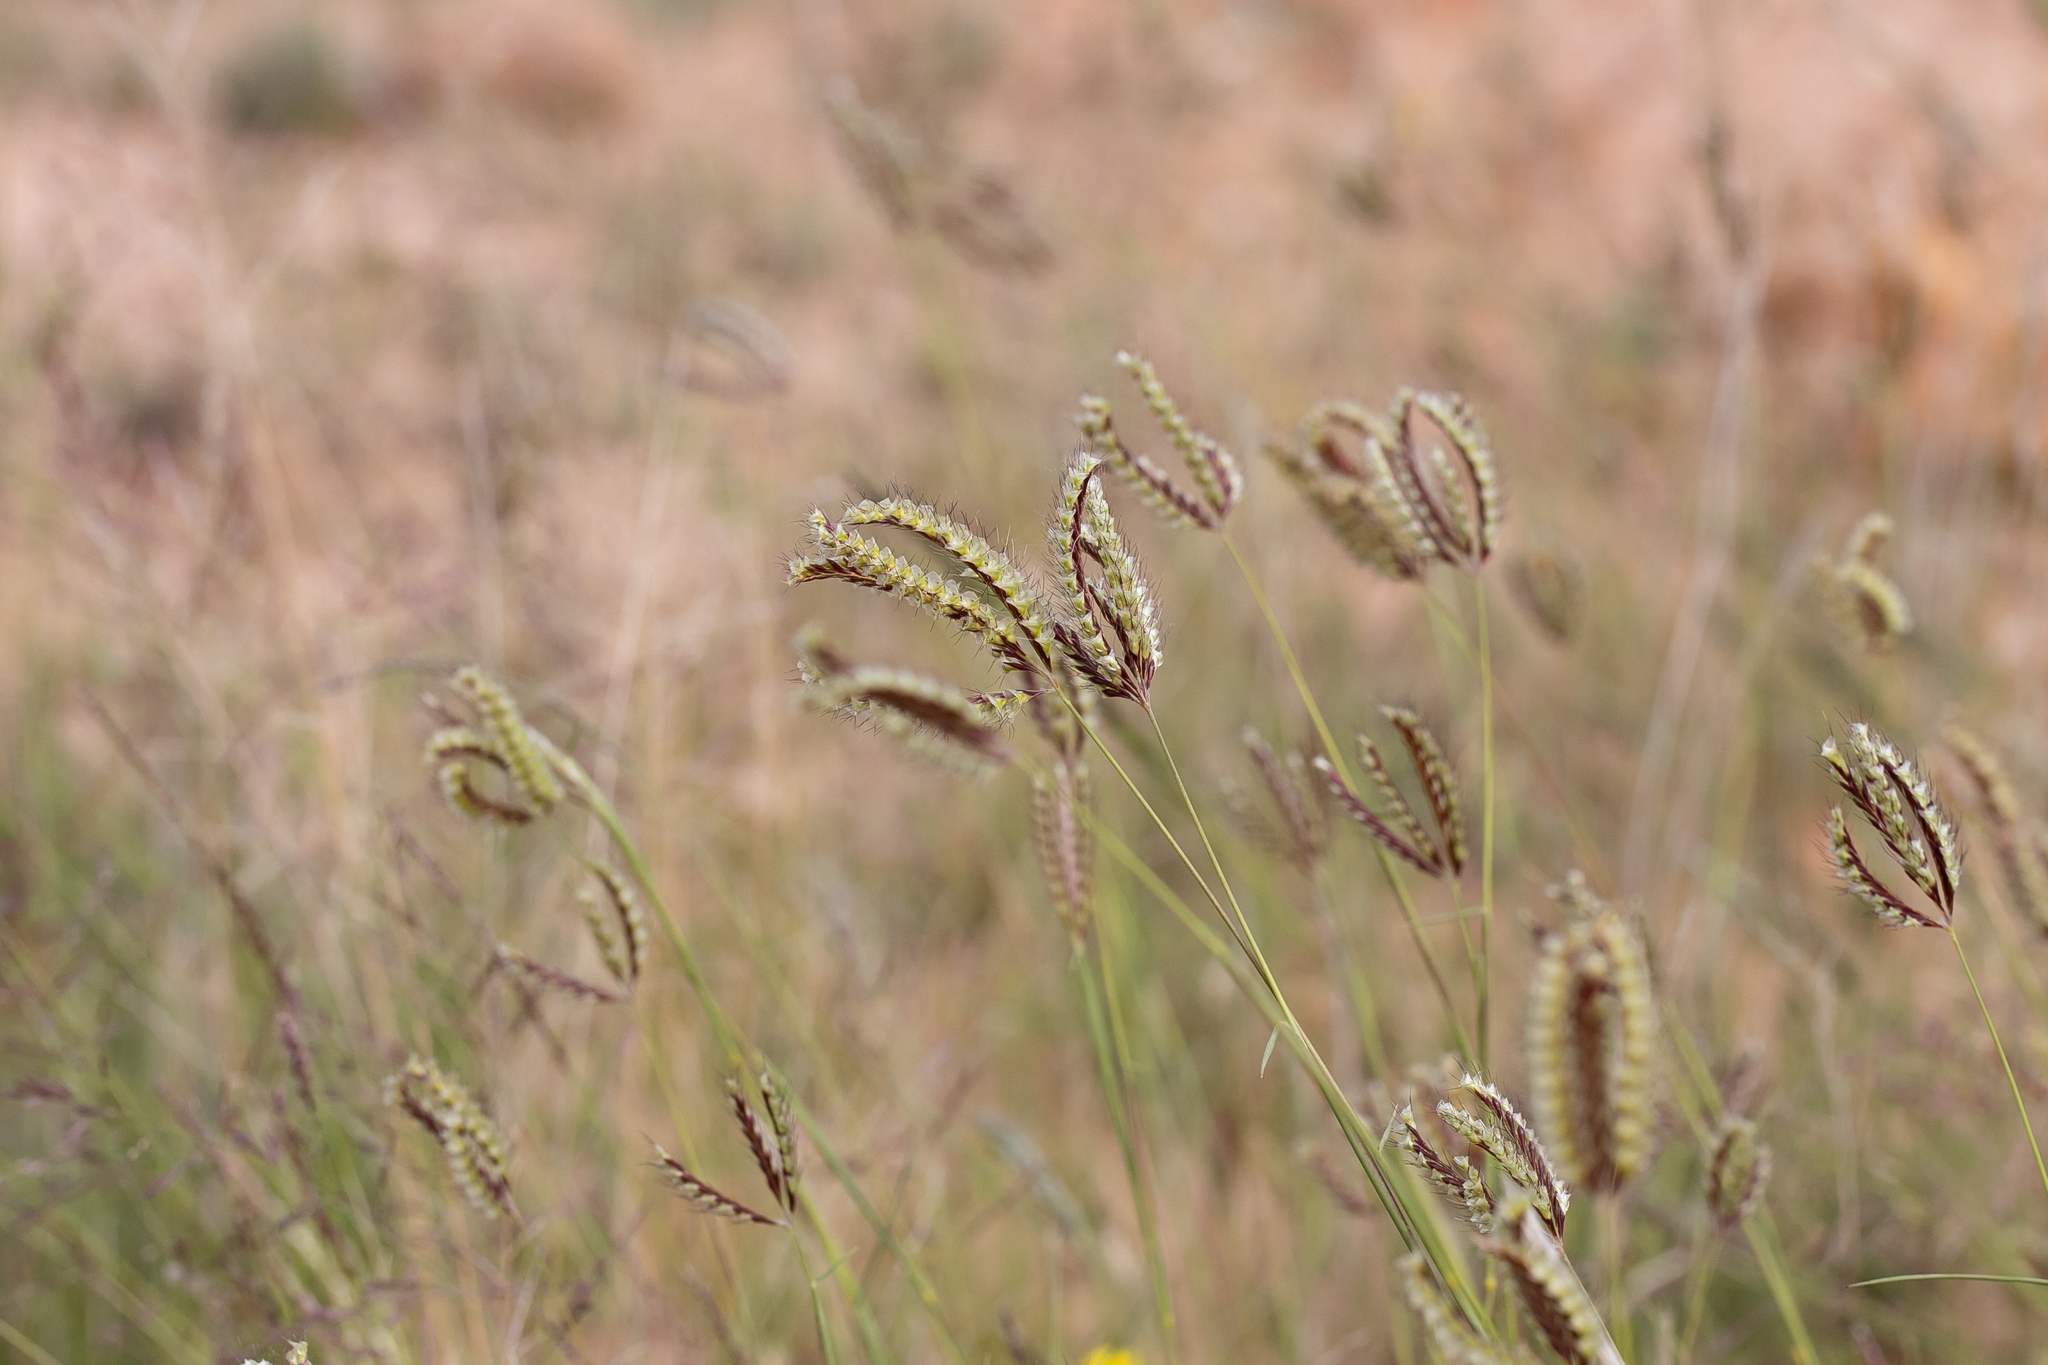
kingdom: Plantae
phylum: Tracheophyta
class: Liliopsida
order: Poales
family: Poaceae
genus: Oxychloris
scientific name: Oxychloris scariosa
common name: Winged windmill grass
